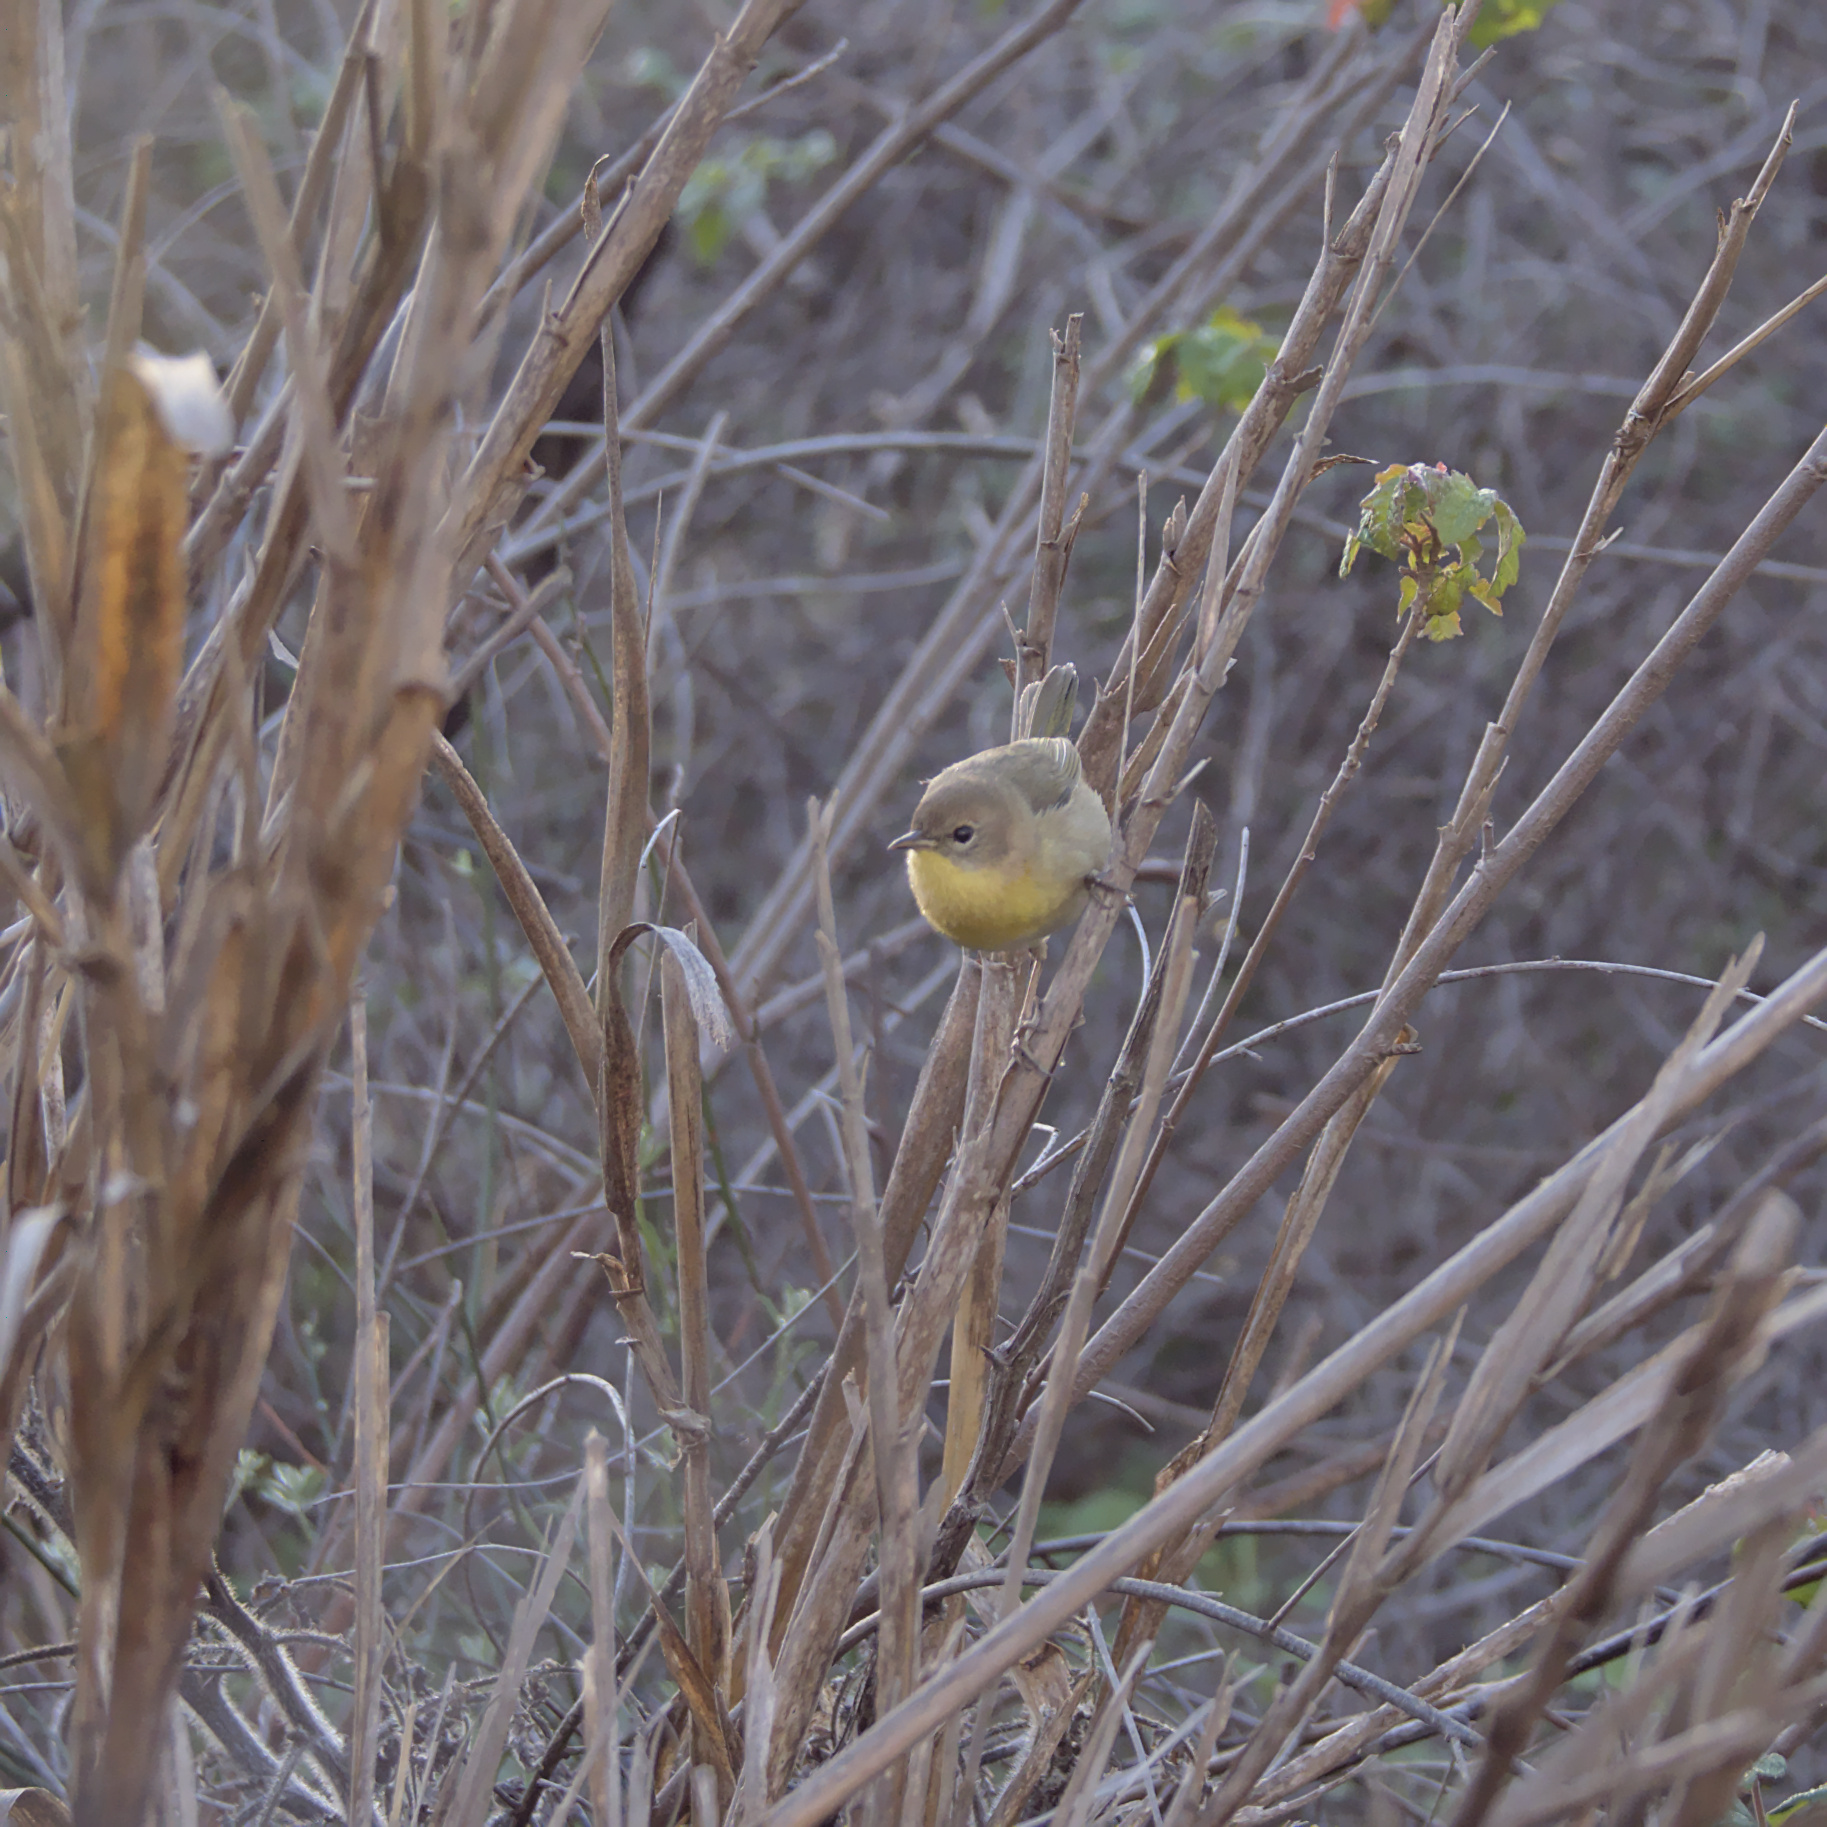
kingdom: Animalia
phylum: Chordata
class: Aves
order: Passeriformes
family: Parulidae
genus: Geothlypis
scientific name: Geothlypis trichas
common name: Common yellowthroat
